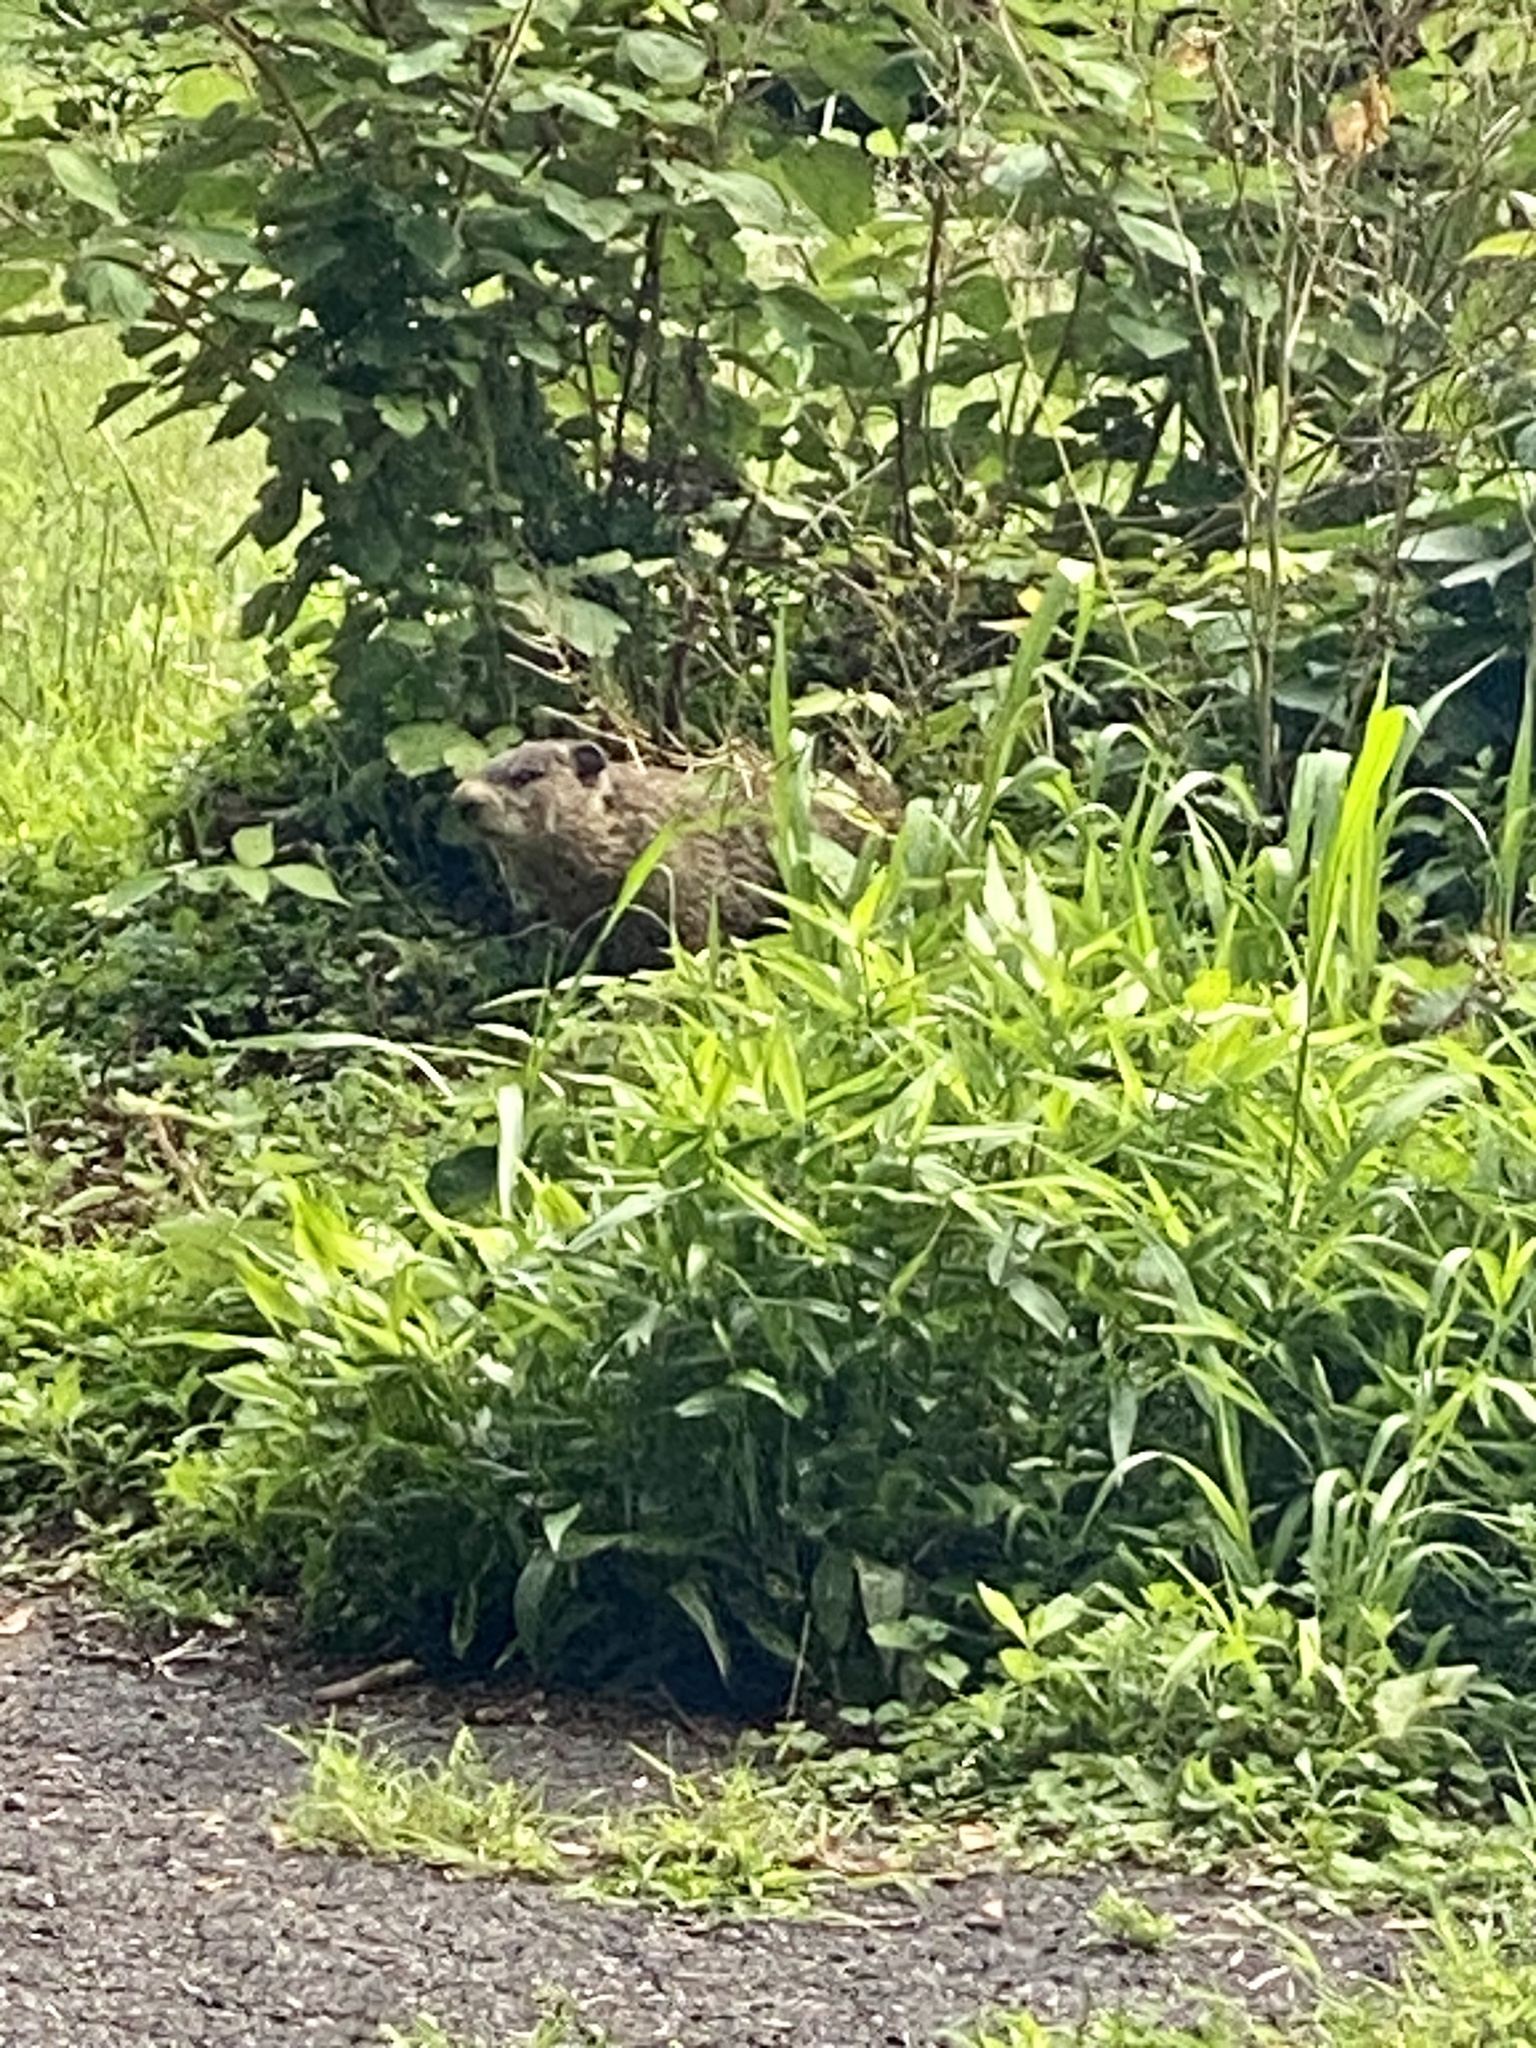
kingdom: Animalia
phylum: Chordata
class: Mammalia
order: Rodentia
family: Sciuridae
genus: Marmota
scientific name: Marmota monax
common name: Groundhog
